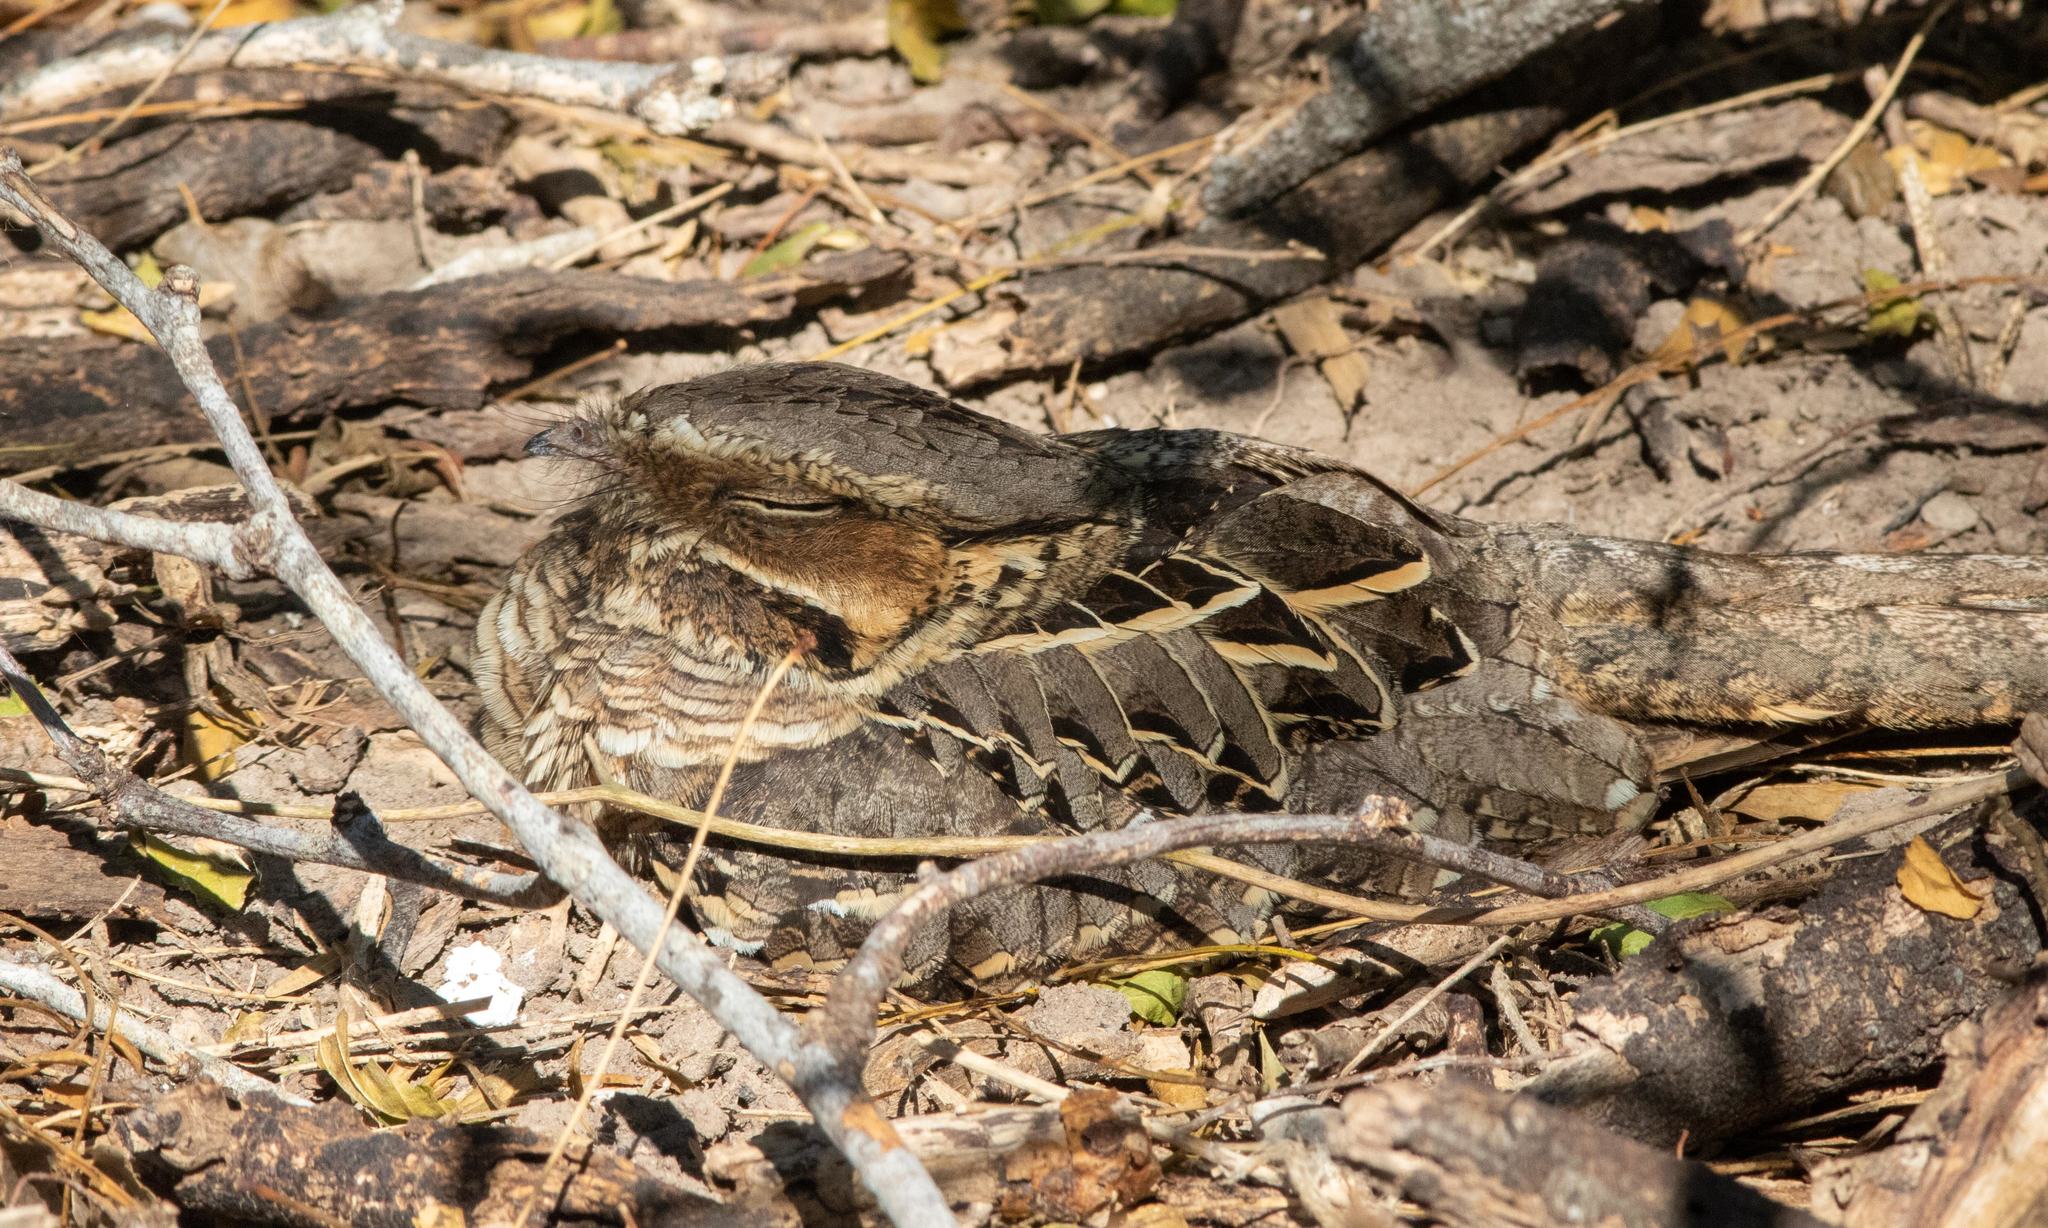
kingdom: Animalia
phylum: Chordata
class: Aves
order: Caprimulgiformes
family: Caprimulgidae
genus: Nyctidromus
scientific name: Nyctidromus albicollis
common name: Pauraque
